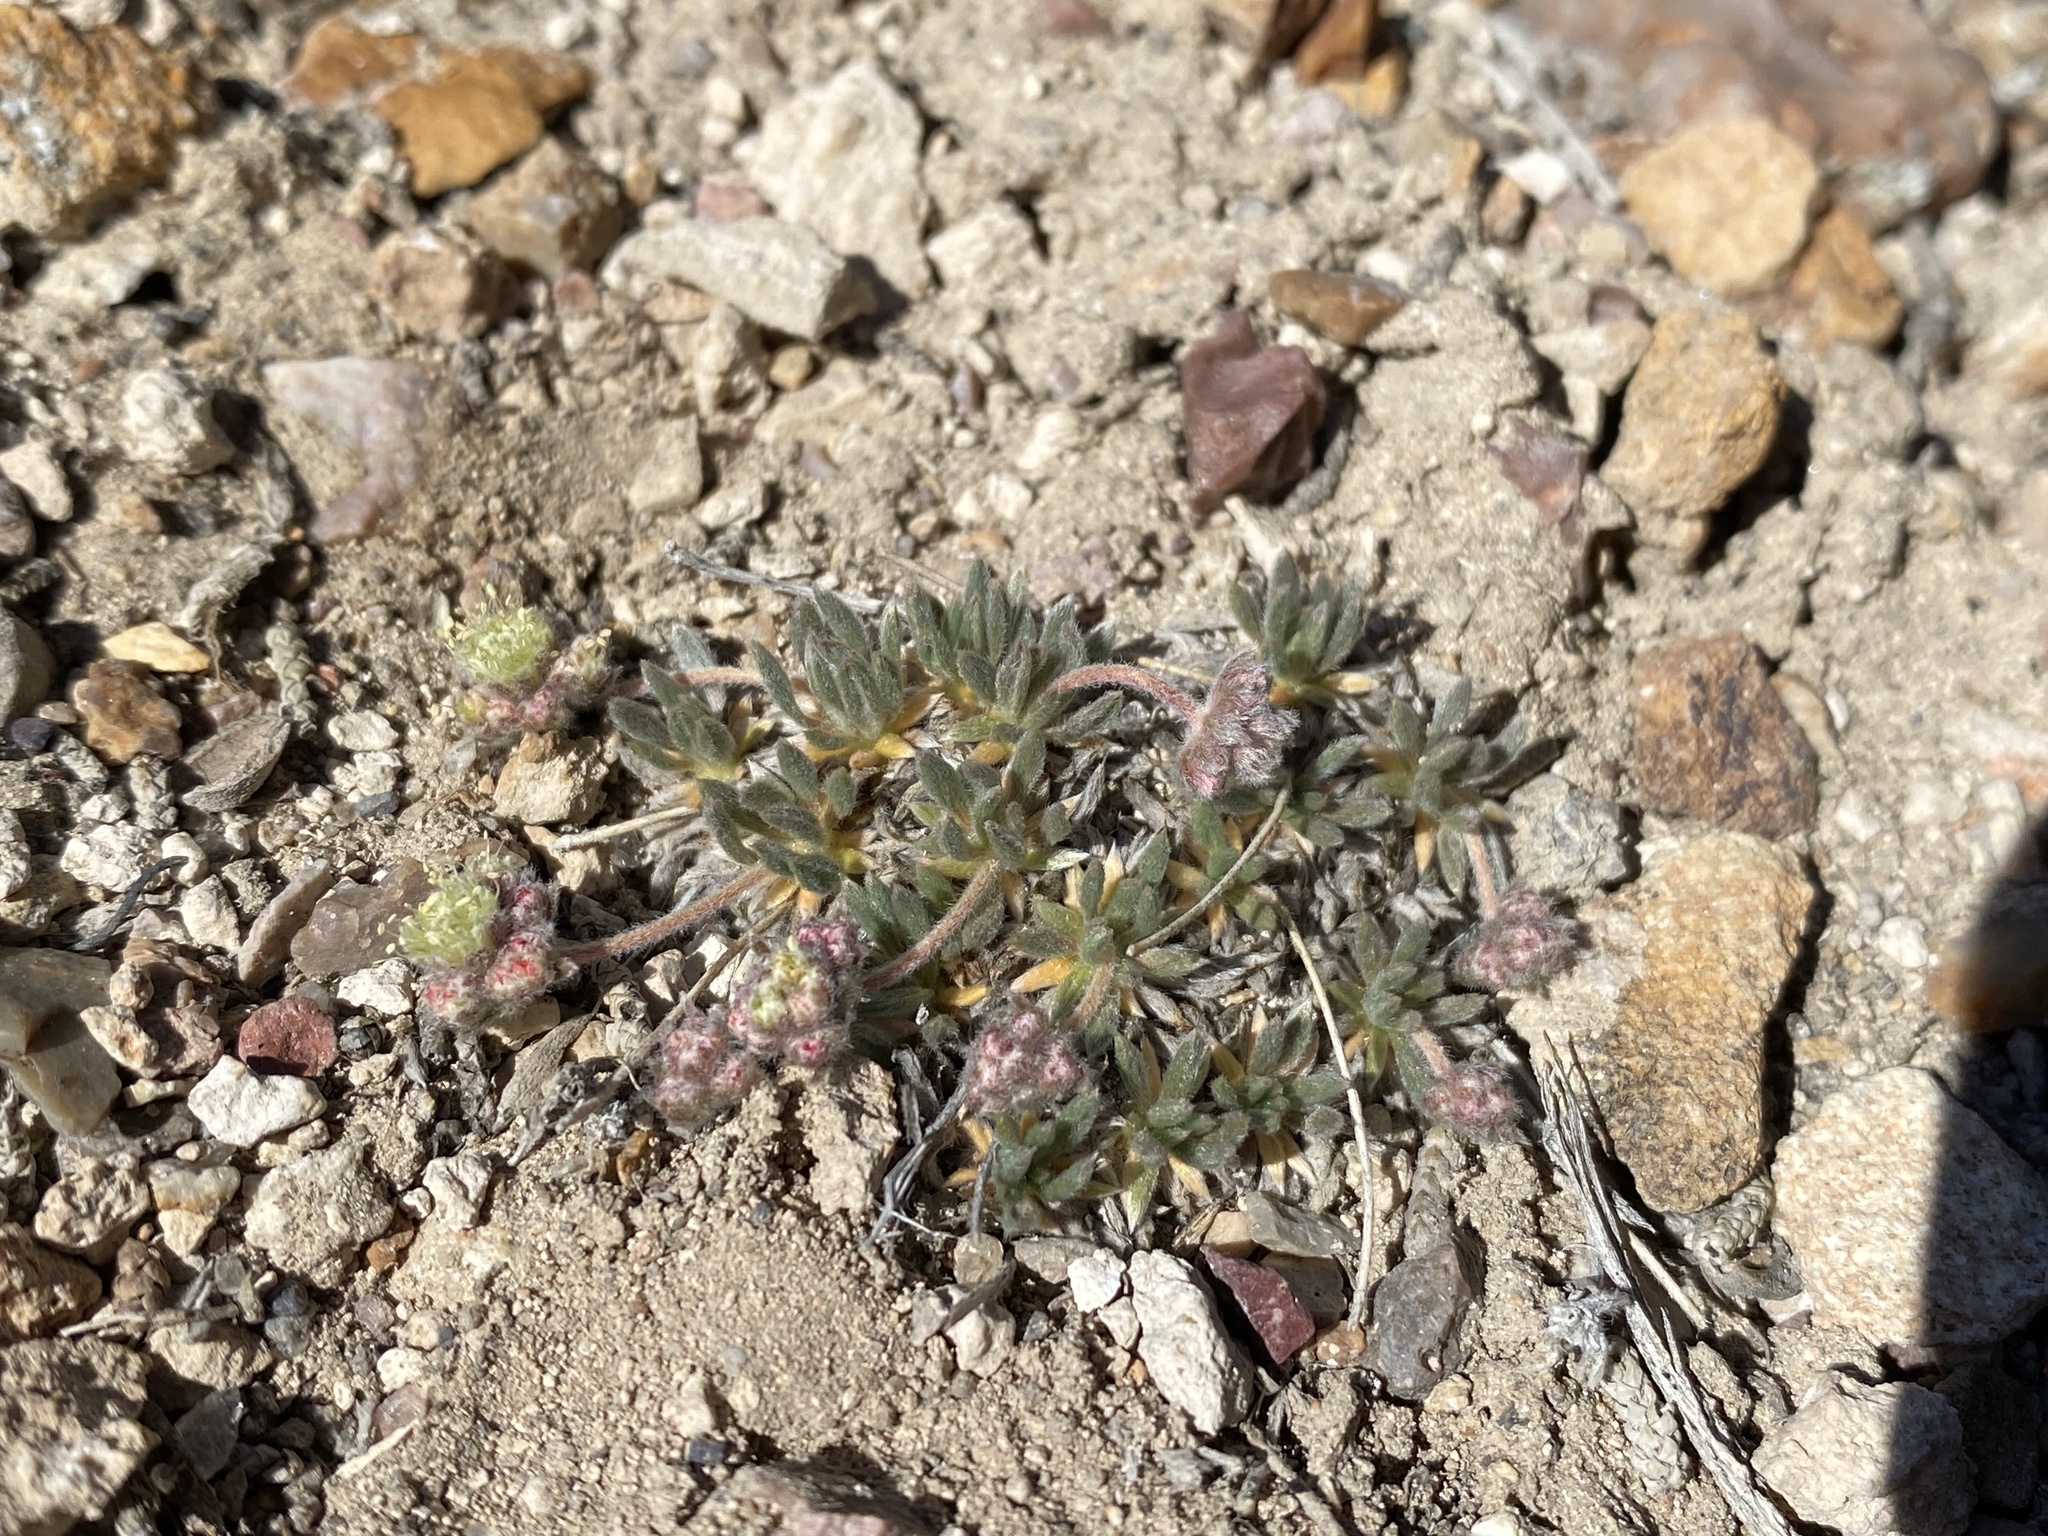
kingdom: Plantae
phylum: Tracheophyta
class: Magnoliopsida
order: Caryophyllales
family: Polygonaceae
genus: Eriogonum
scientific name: Eriogonum villiflorum
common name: Gray's wild buckwheat
